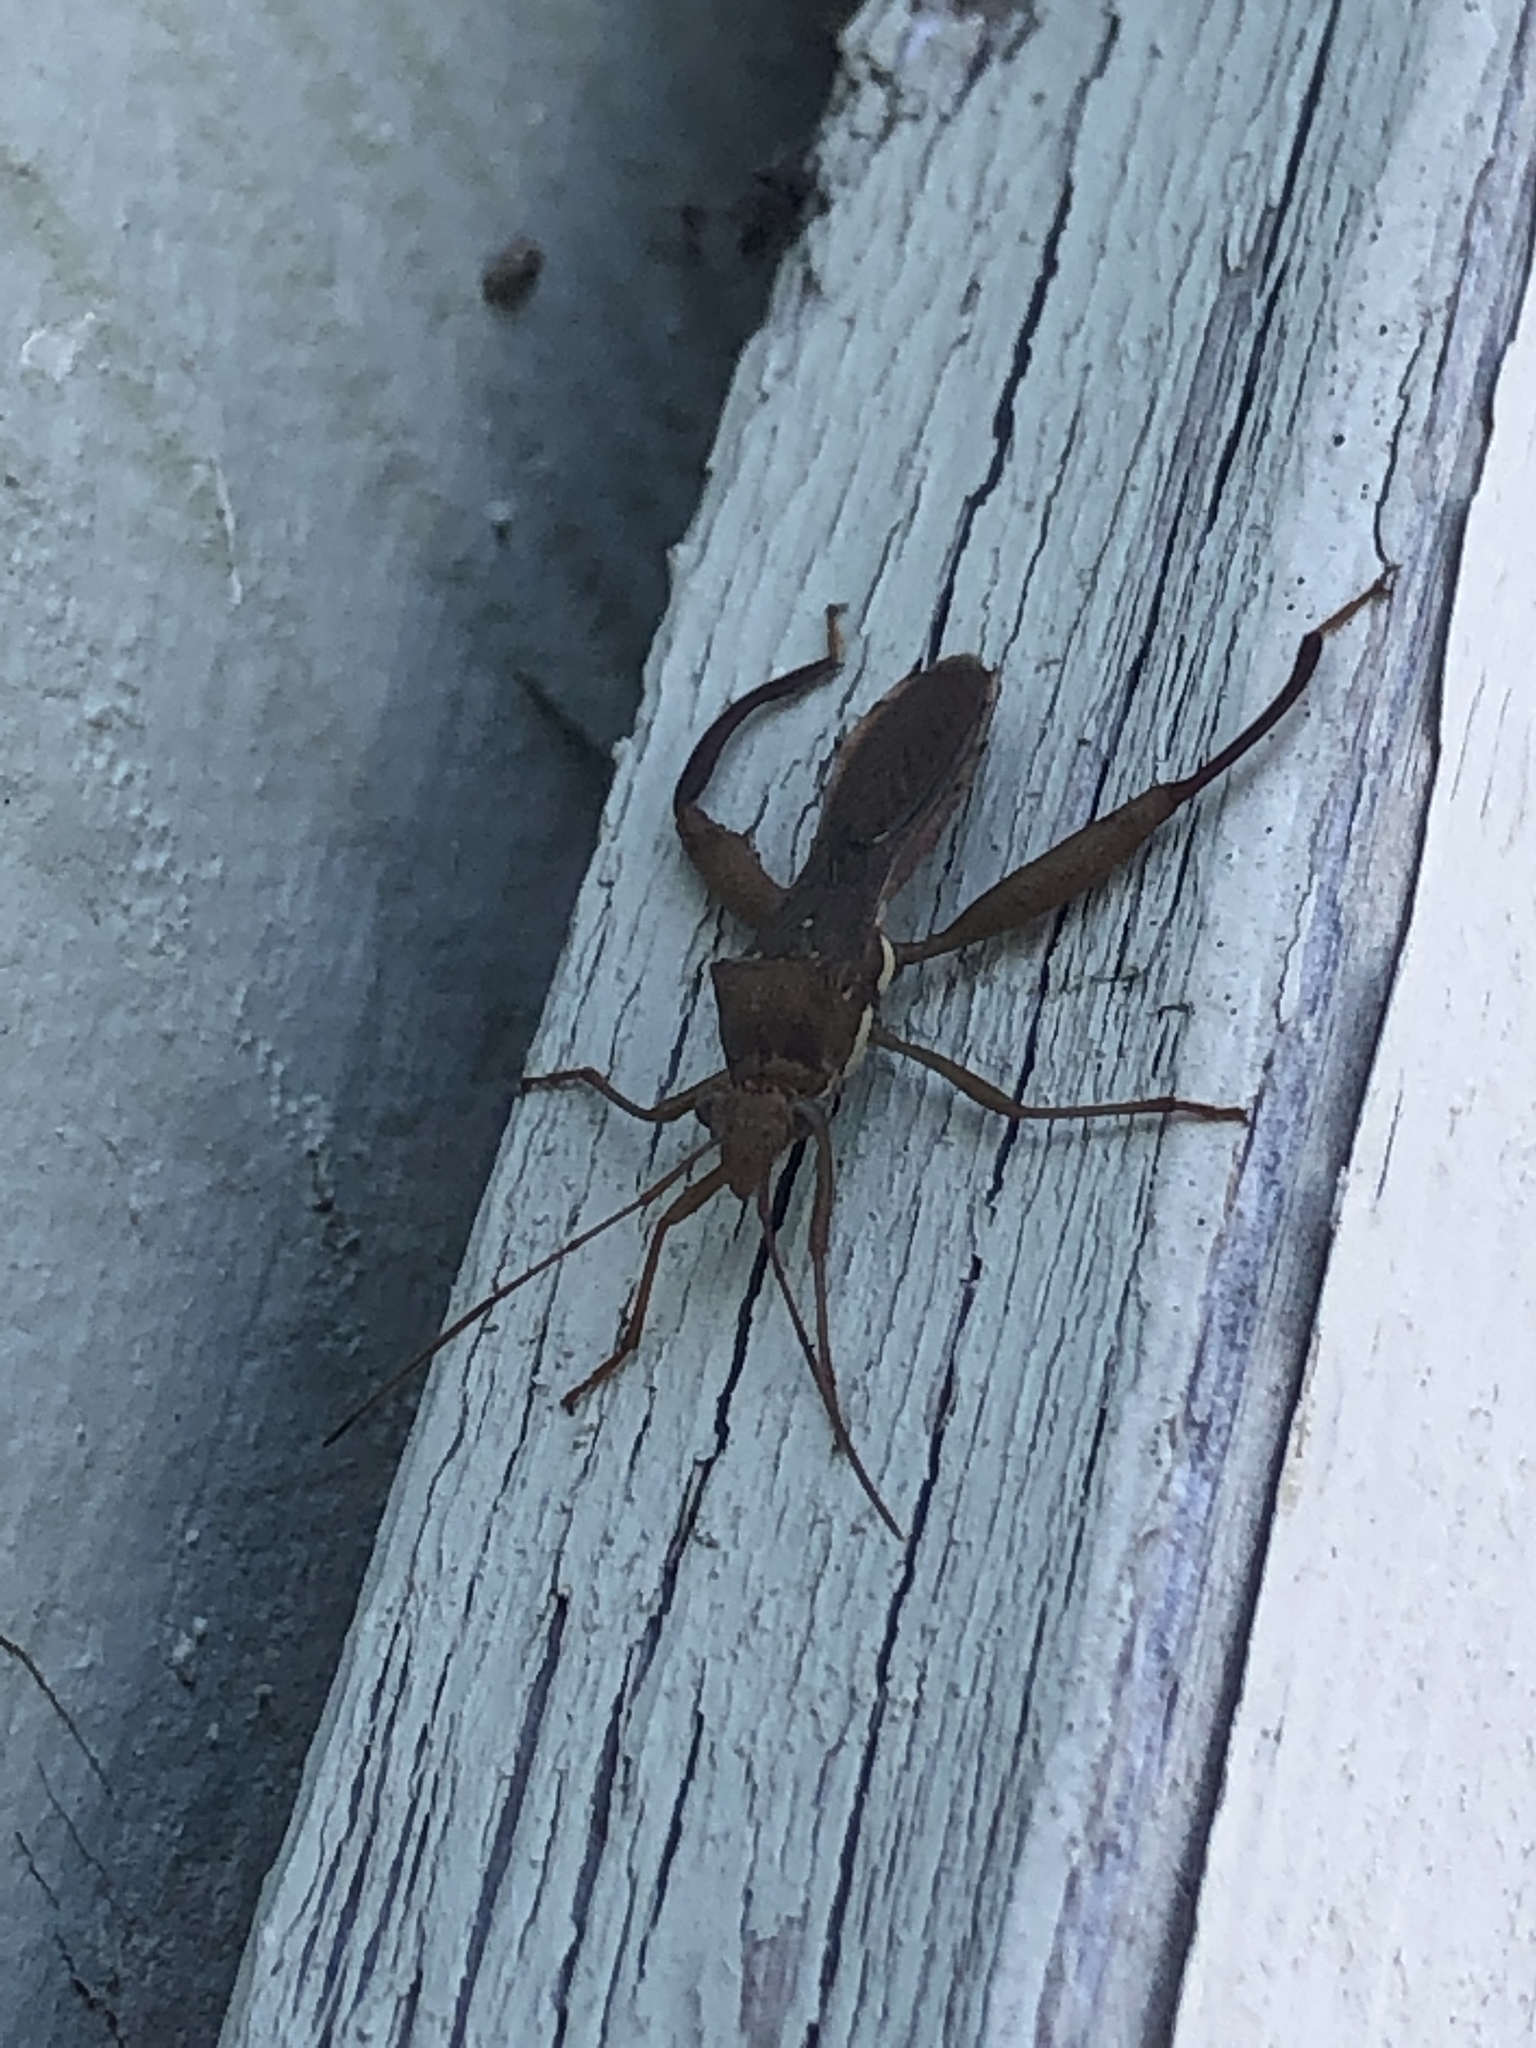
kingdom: Animalia
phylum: Arthropoda
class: Insecta
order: Hemiptera
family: Alydidae
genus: Hyalymenus
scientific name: Hyalymenus tarsatus
